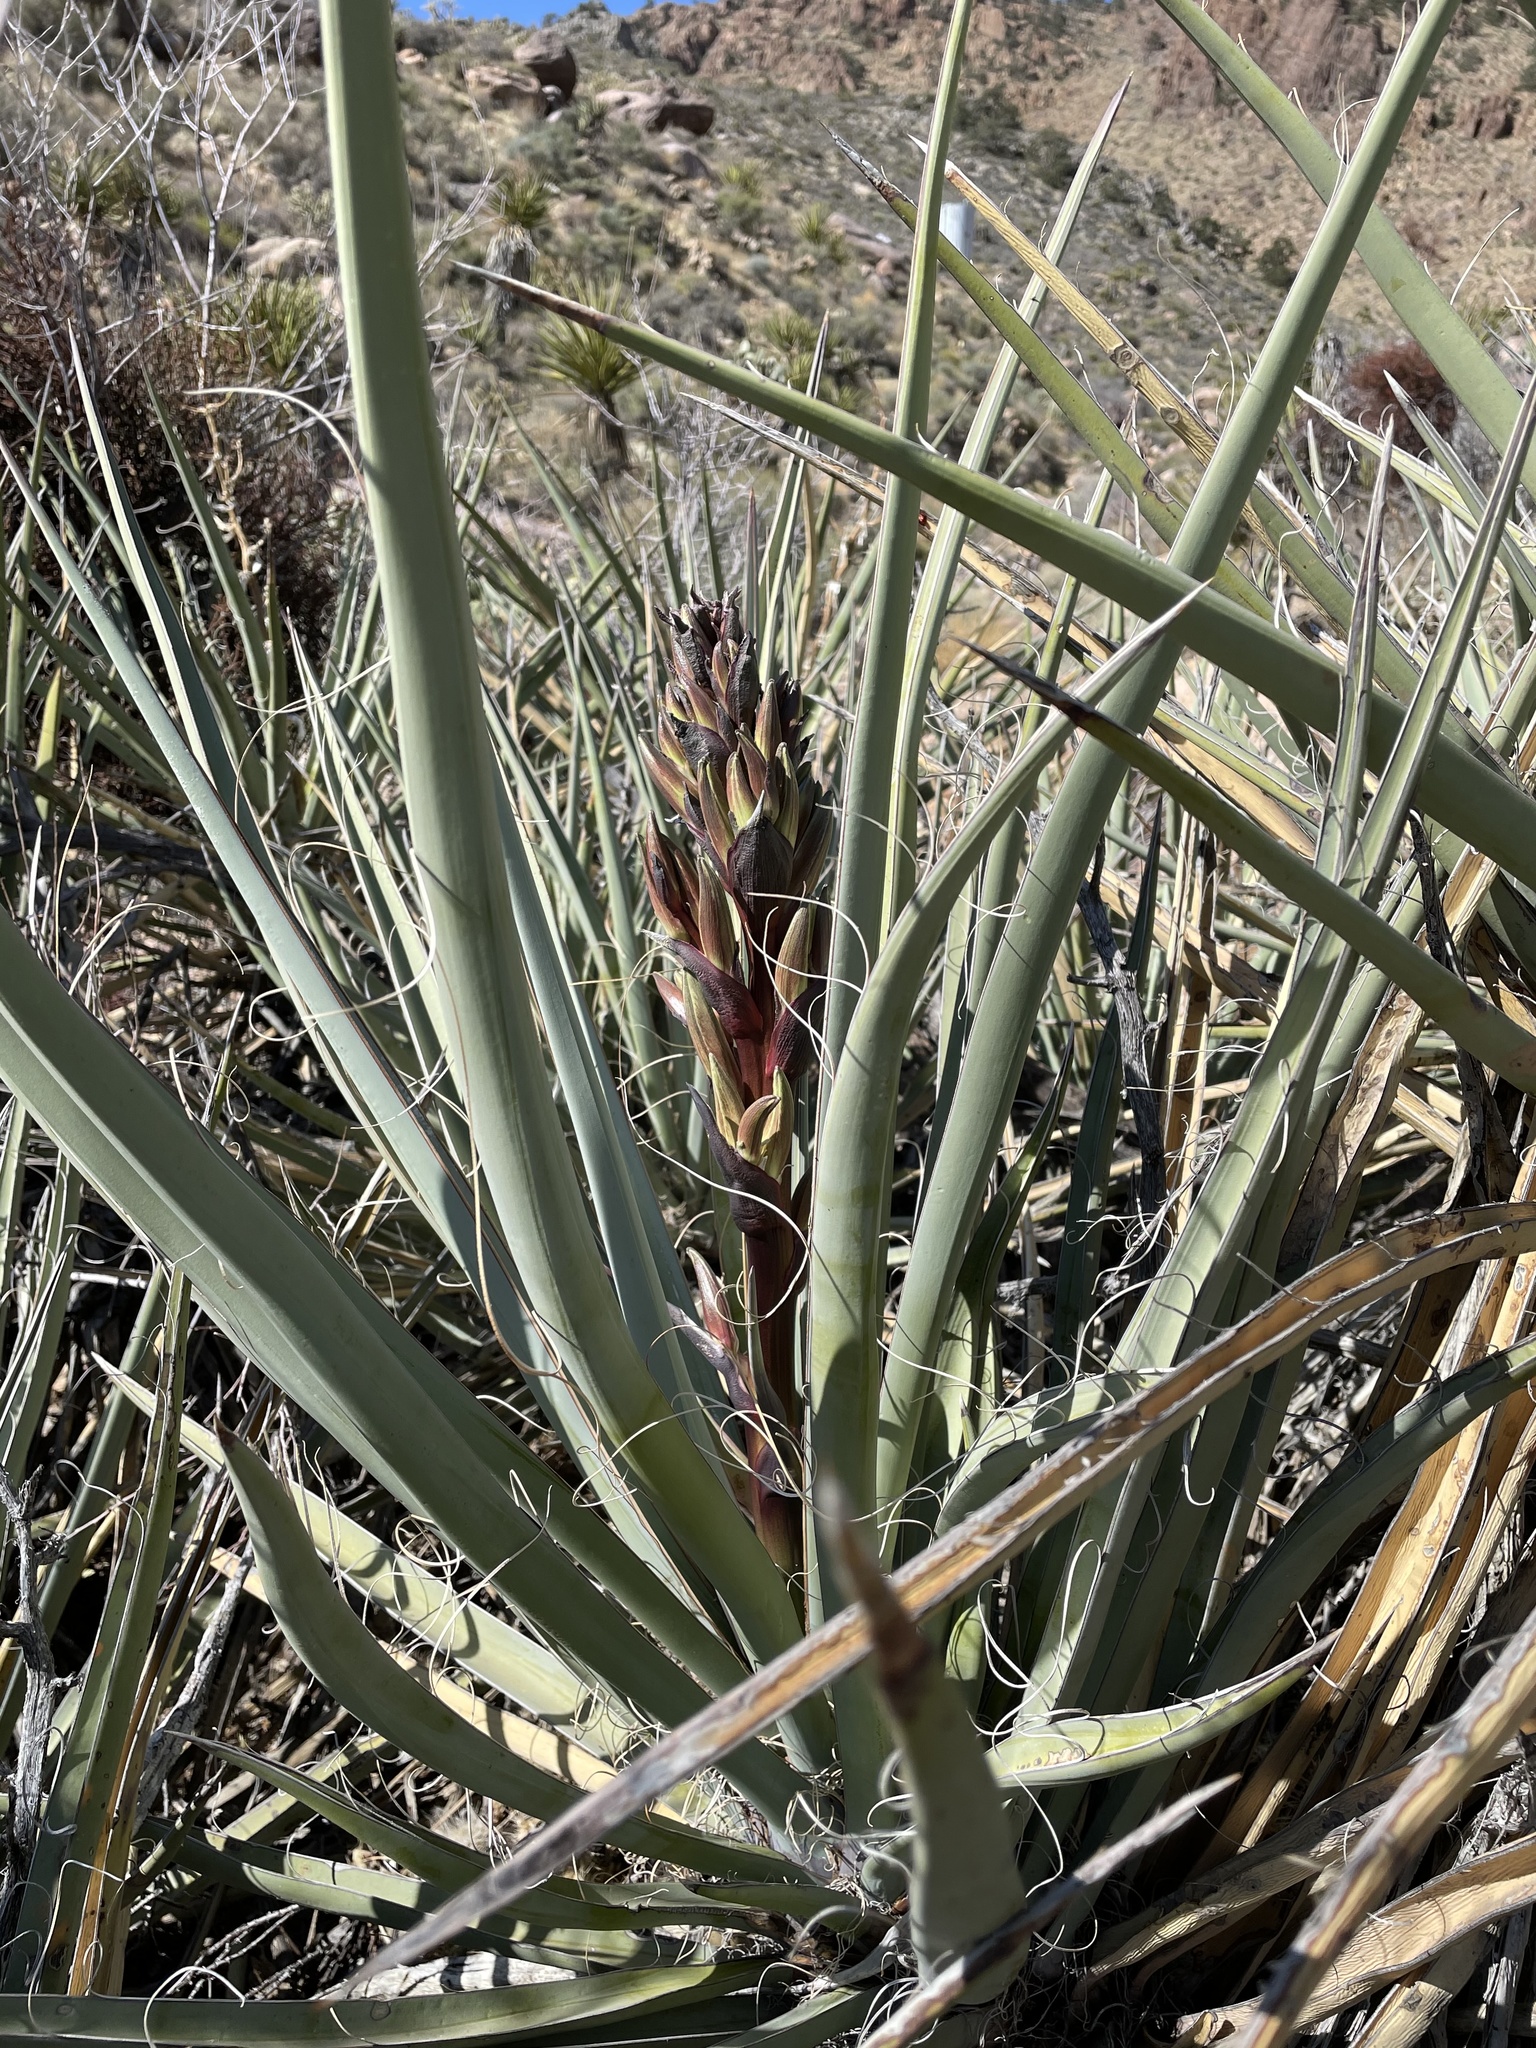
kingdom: Plantae
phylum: Tracheophyta
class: Liliopsida
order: Asparagales
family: Asparagaceae
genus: Yucca
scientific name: Yucca baccata
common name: Banana yucca
